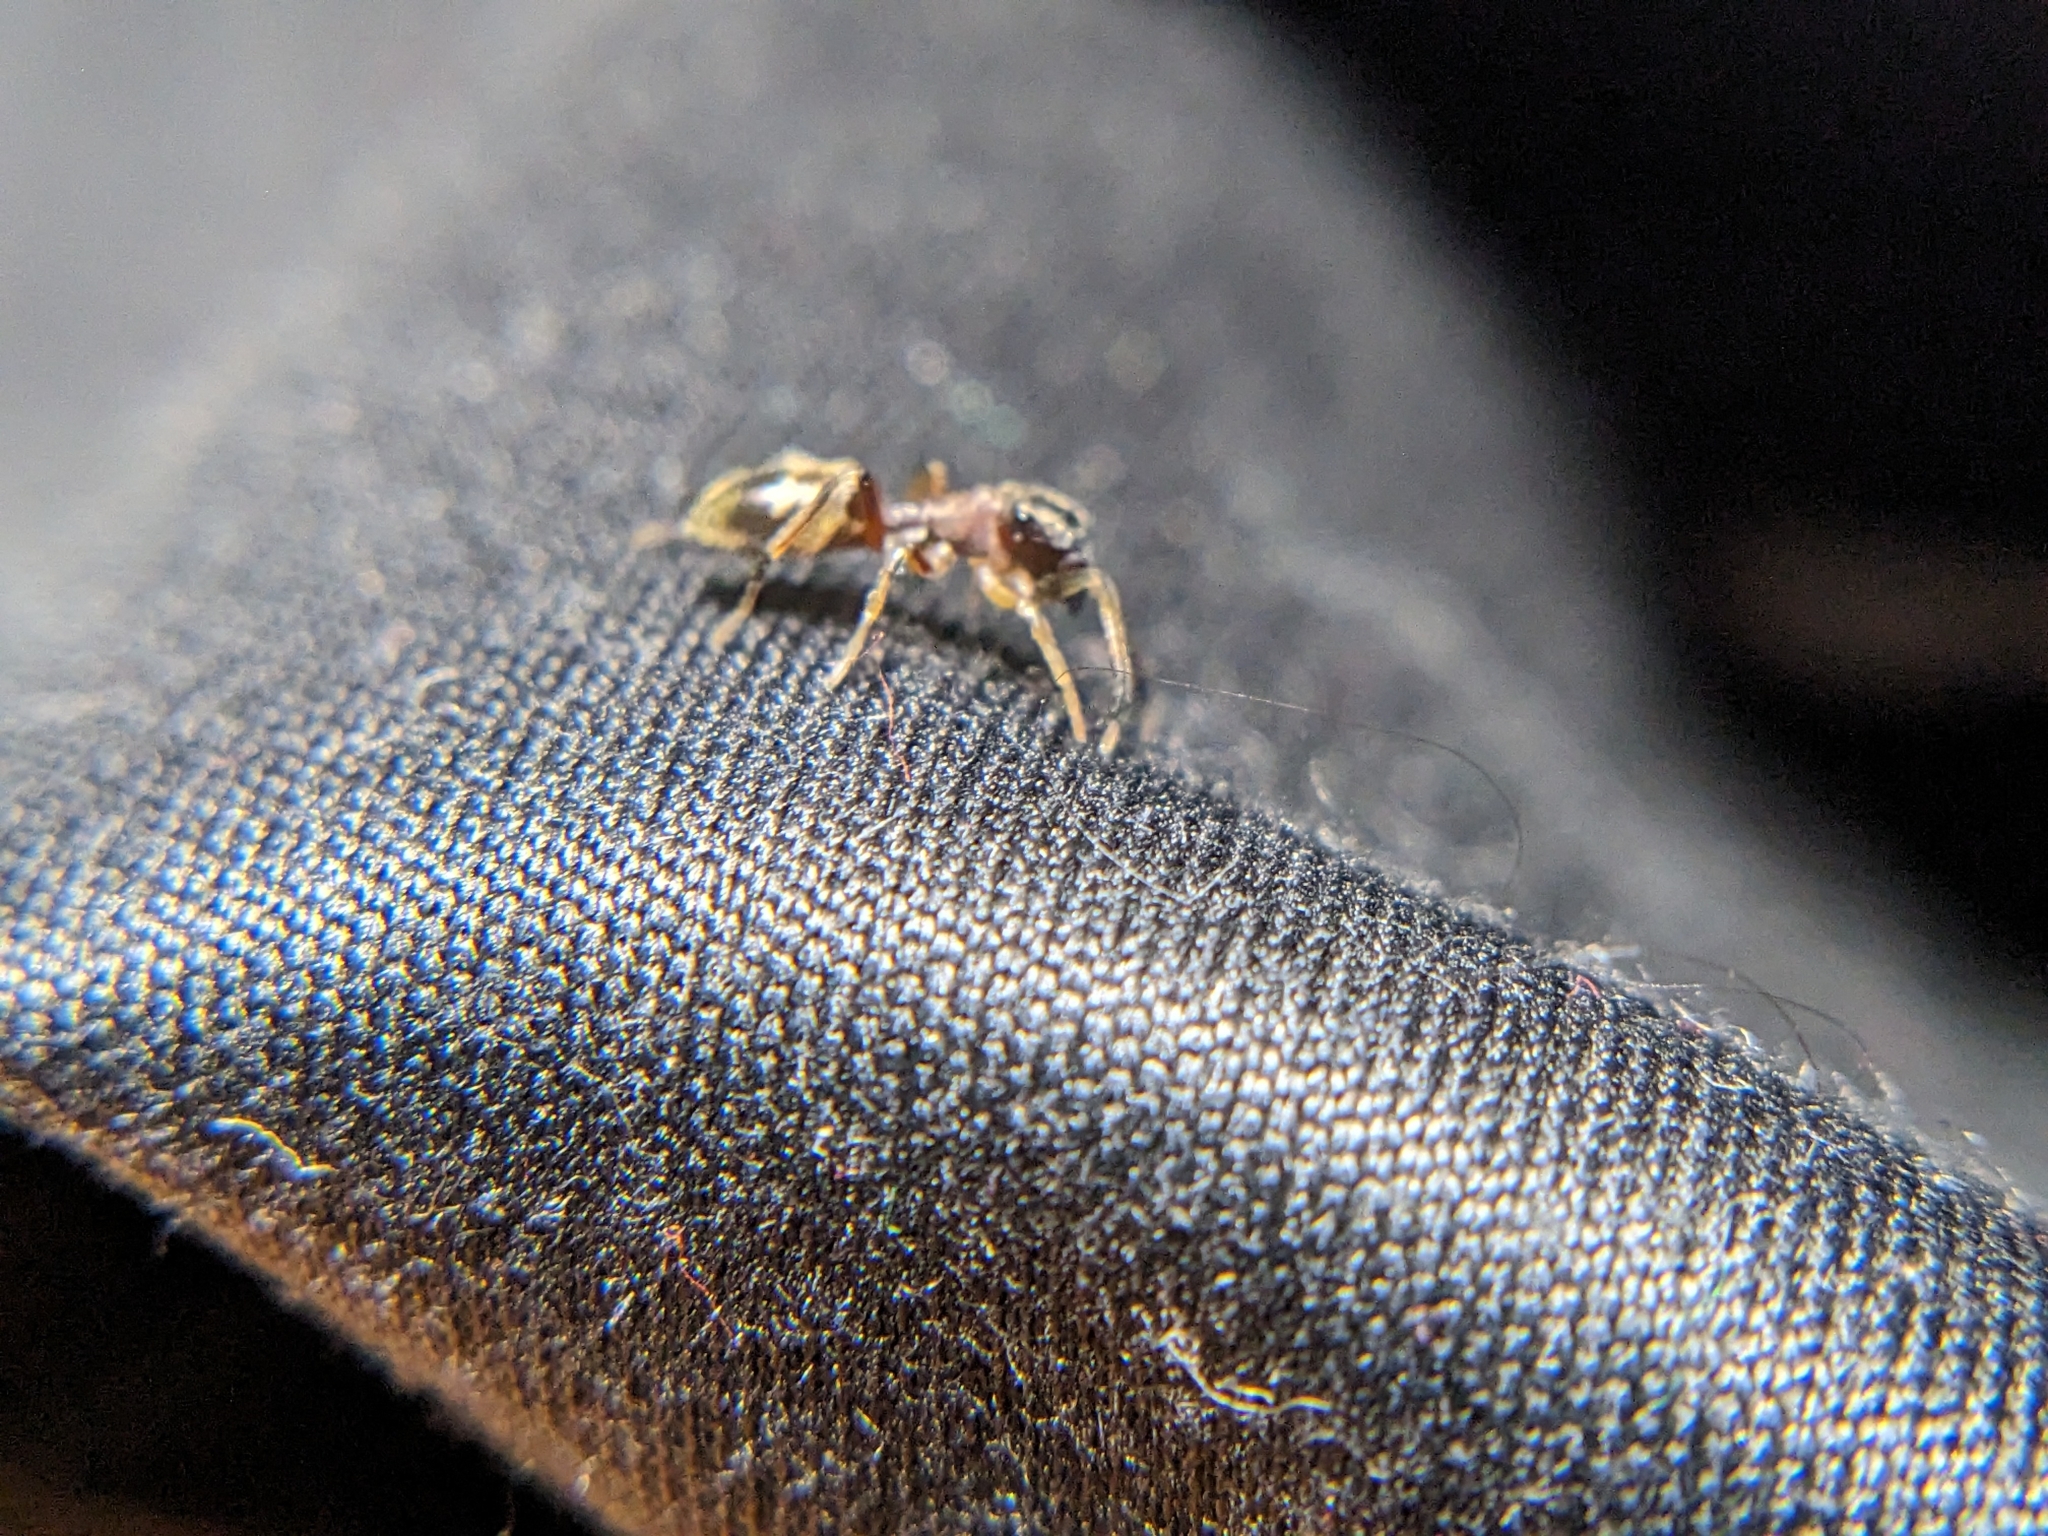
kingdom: Animalia
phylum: Arthropoda
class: Arachnida
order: Araneae
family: Salticidae
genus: Myrmarachne
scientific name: Myrmarachne formicaria
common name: Ant mimic jumping spider
